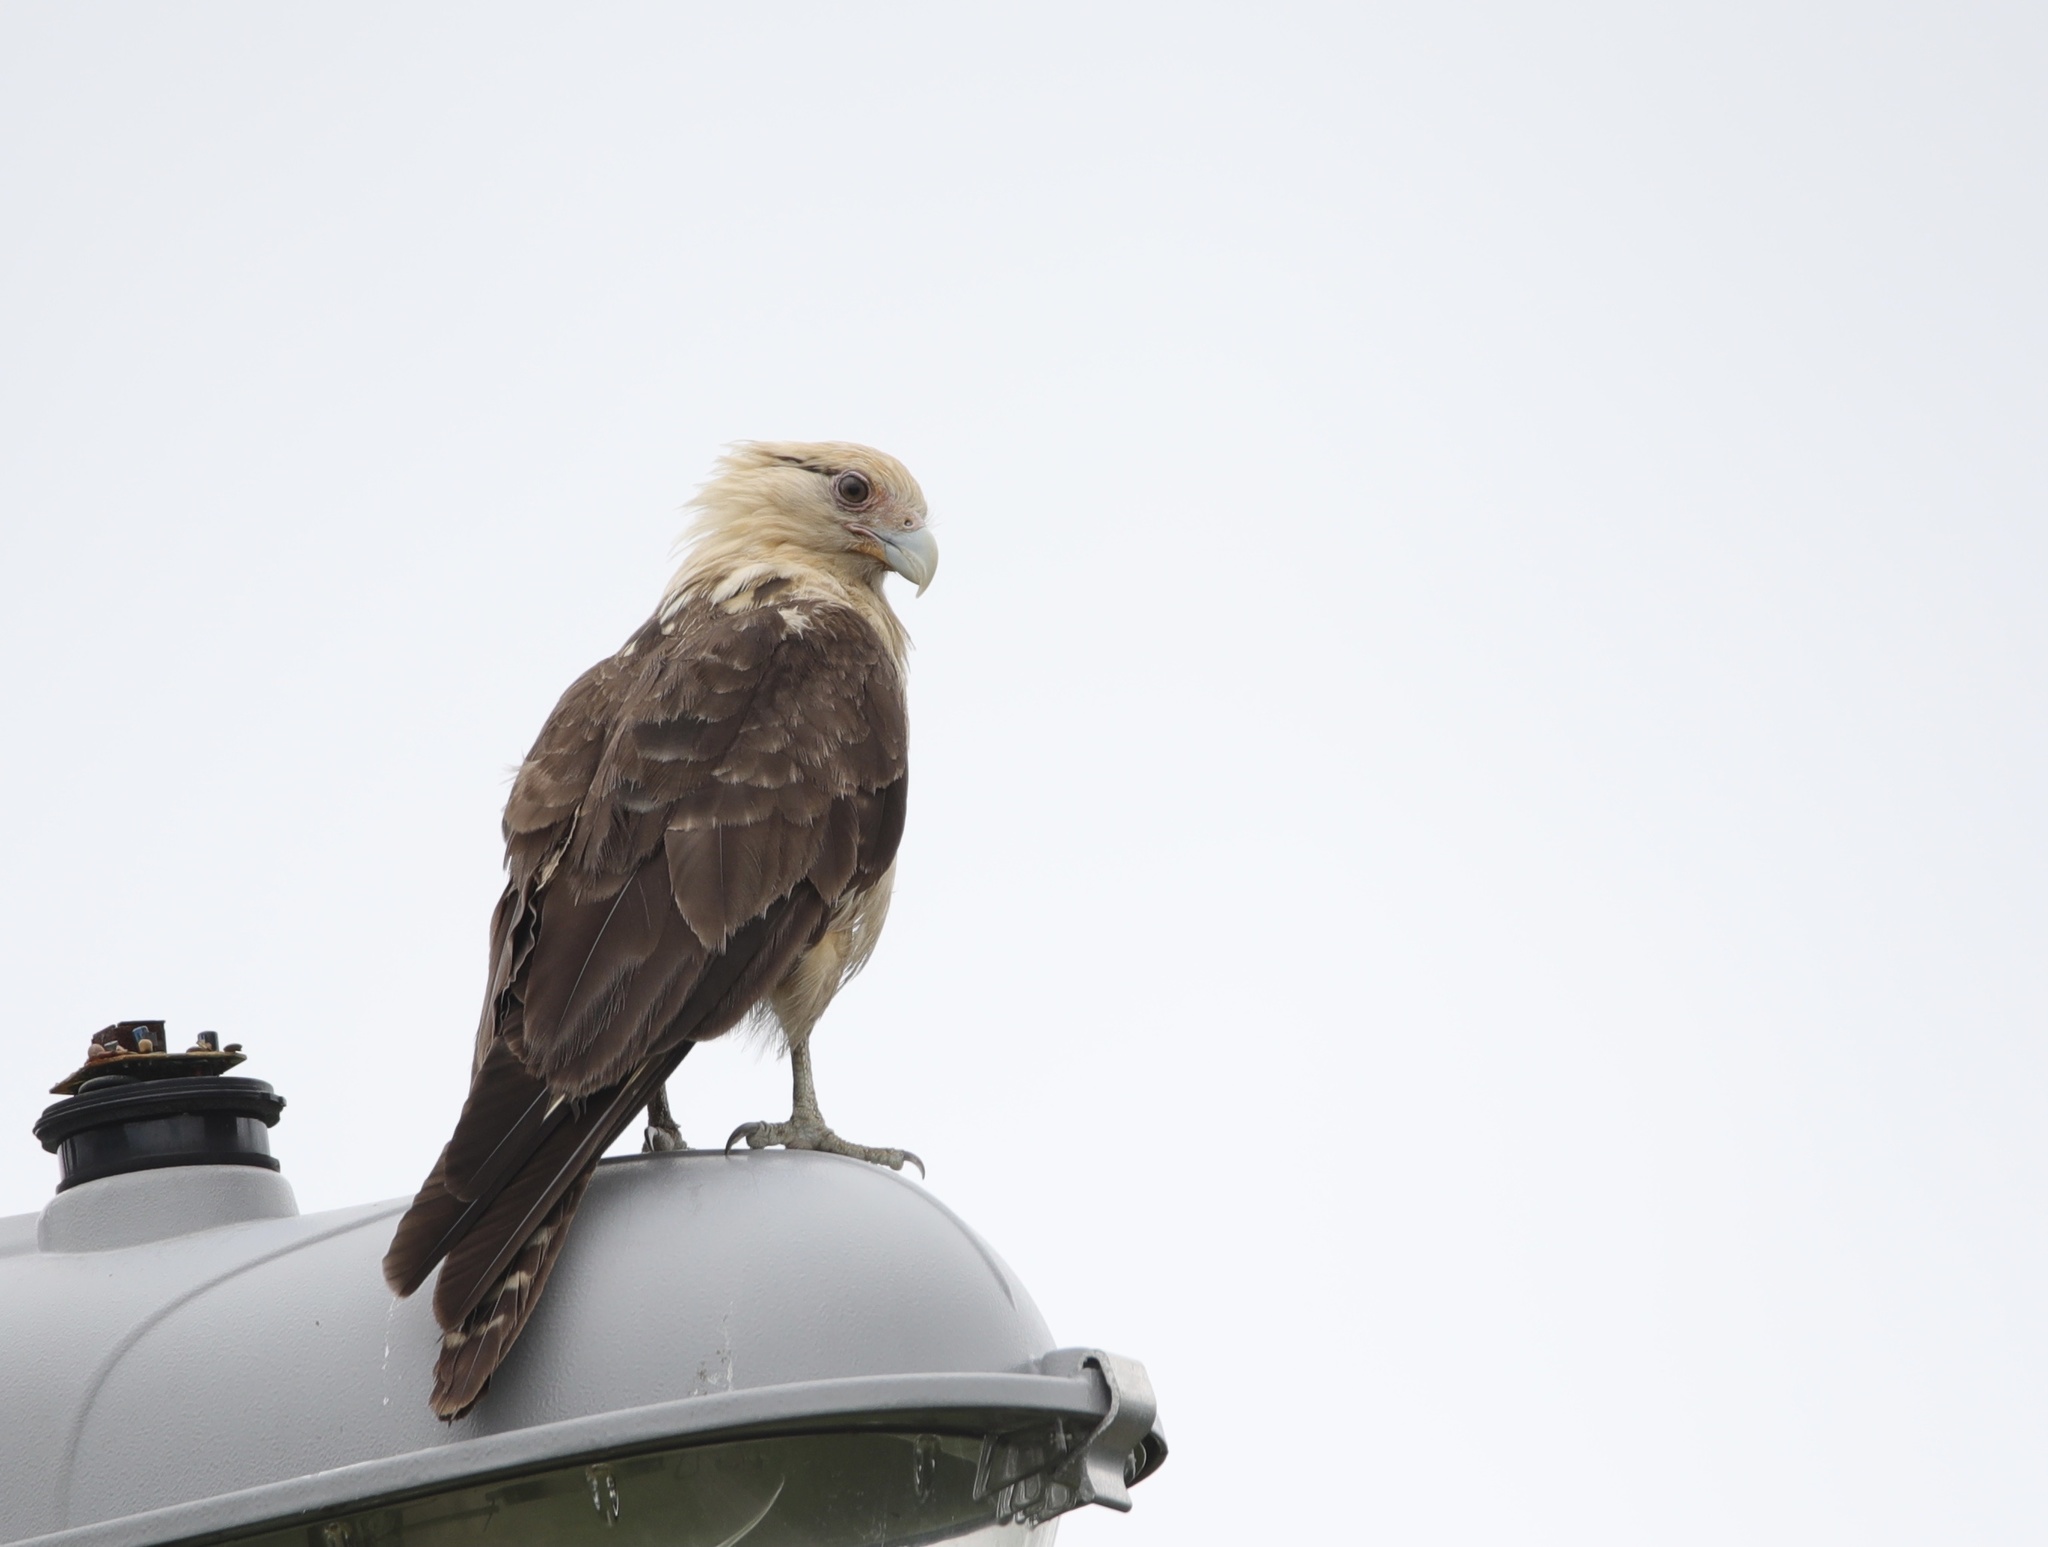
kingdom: Animalia
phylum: Chordata
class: Aves
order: Falconiformes
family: Falconidae
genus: Daptrius
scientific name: Daptrius
